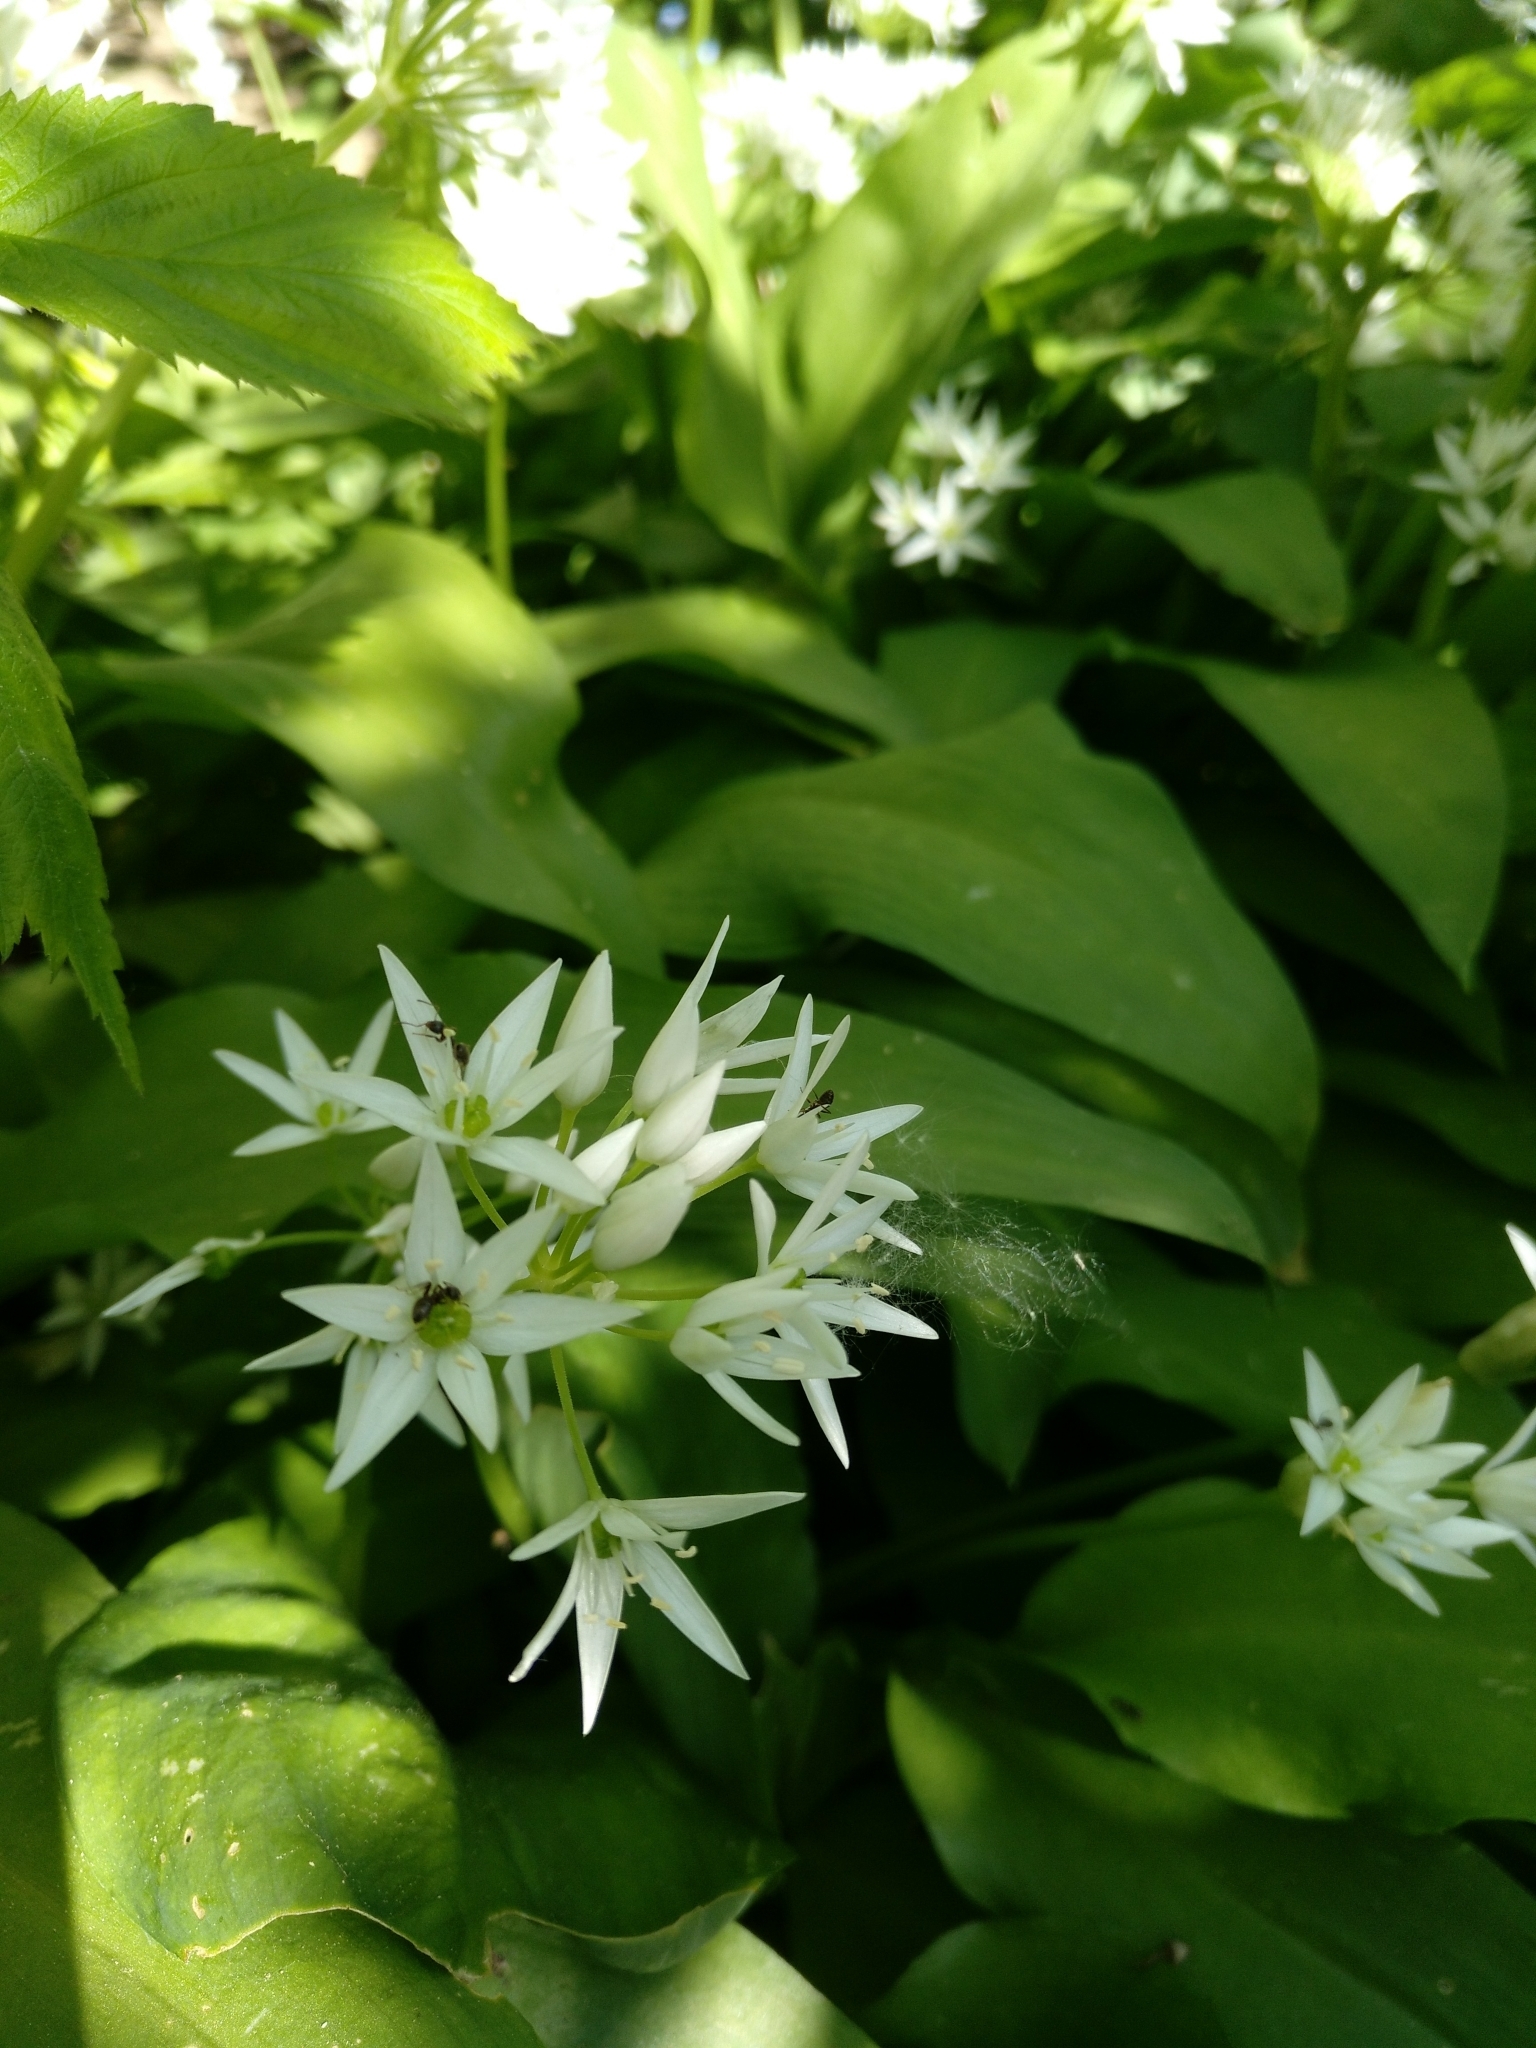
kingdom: Plantae
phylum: Tracheophyta
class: Liliopsida
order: Asparagales
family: Amaryllidaceae
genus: Allium
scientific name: Allium ursinum
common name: Ramsons
